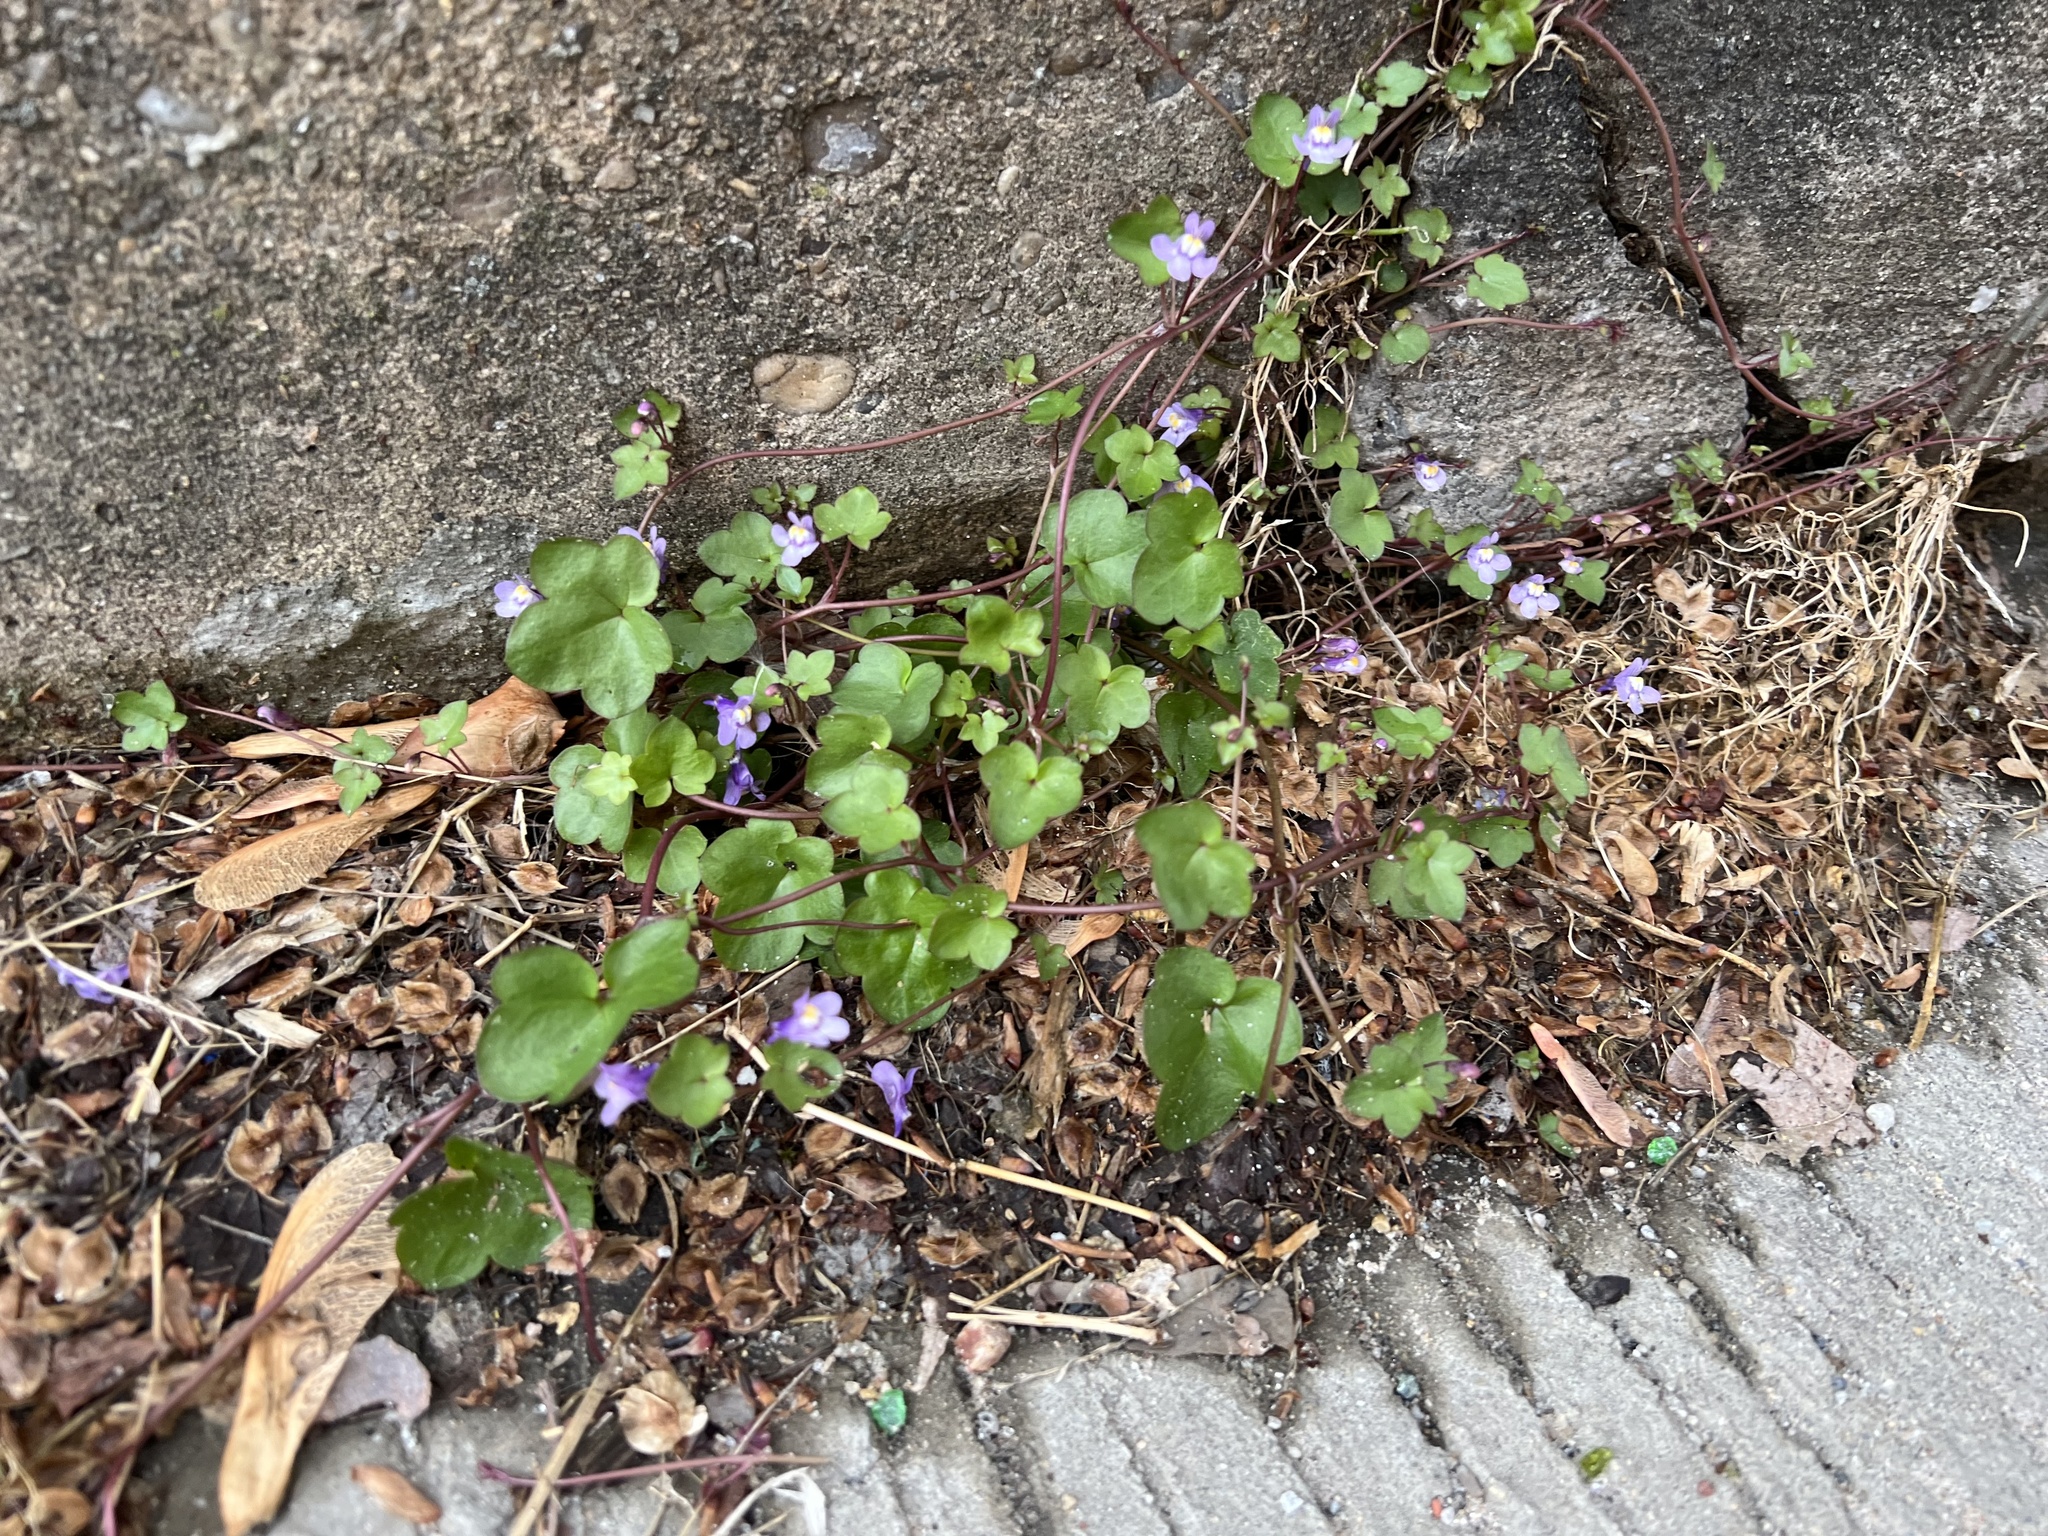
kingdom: Plantae
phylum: Tracheophyta
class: Magnoliopsida
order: Lamiales
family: Plantaginaceae
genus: Cymbalaria
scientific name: Cymbalaria muralis
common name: Ivy-leaved toadflax
